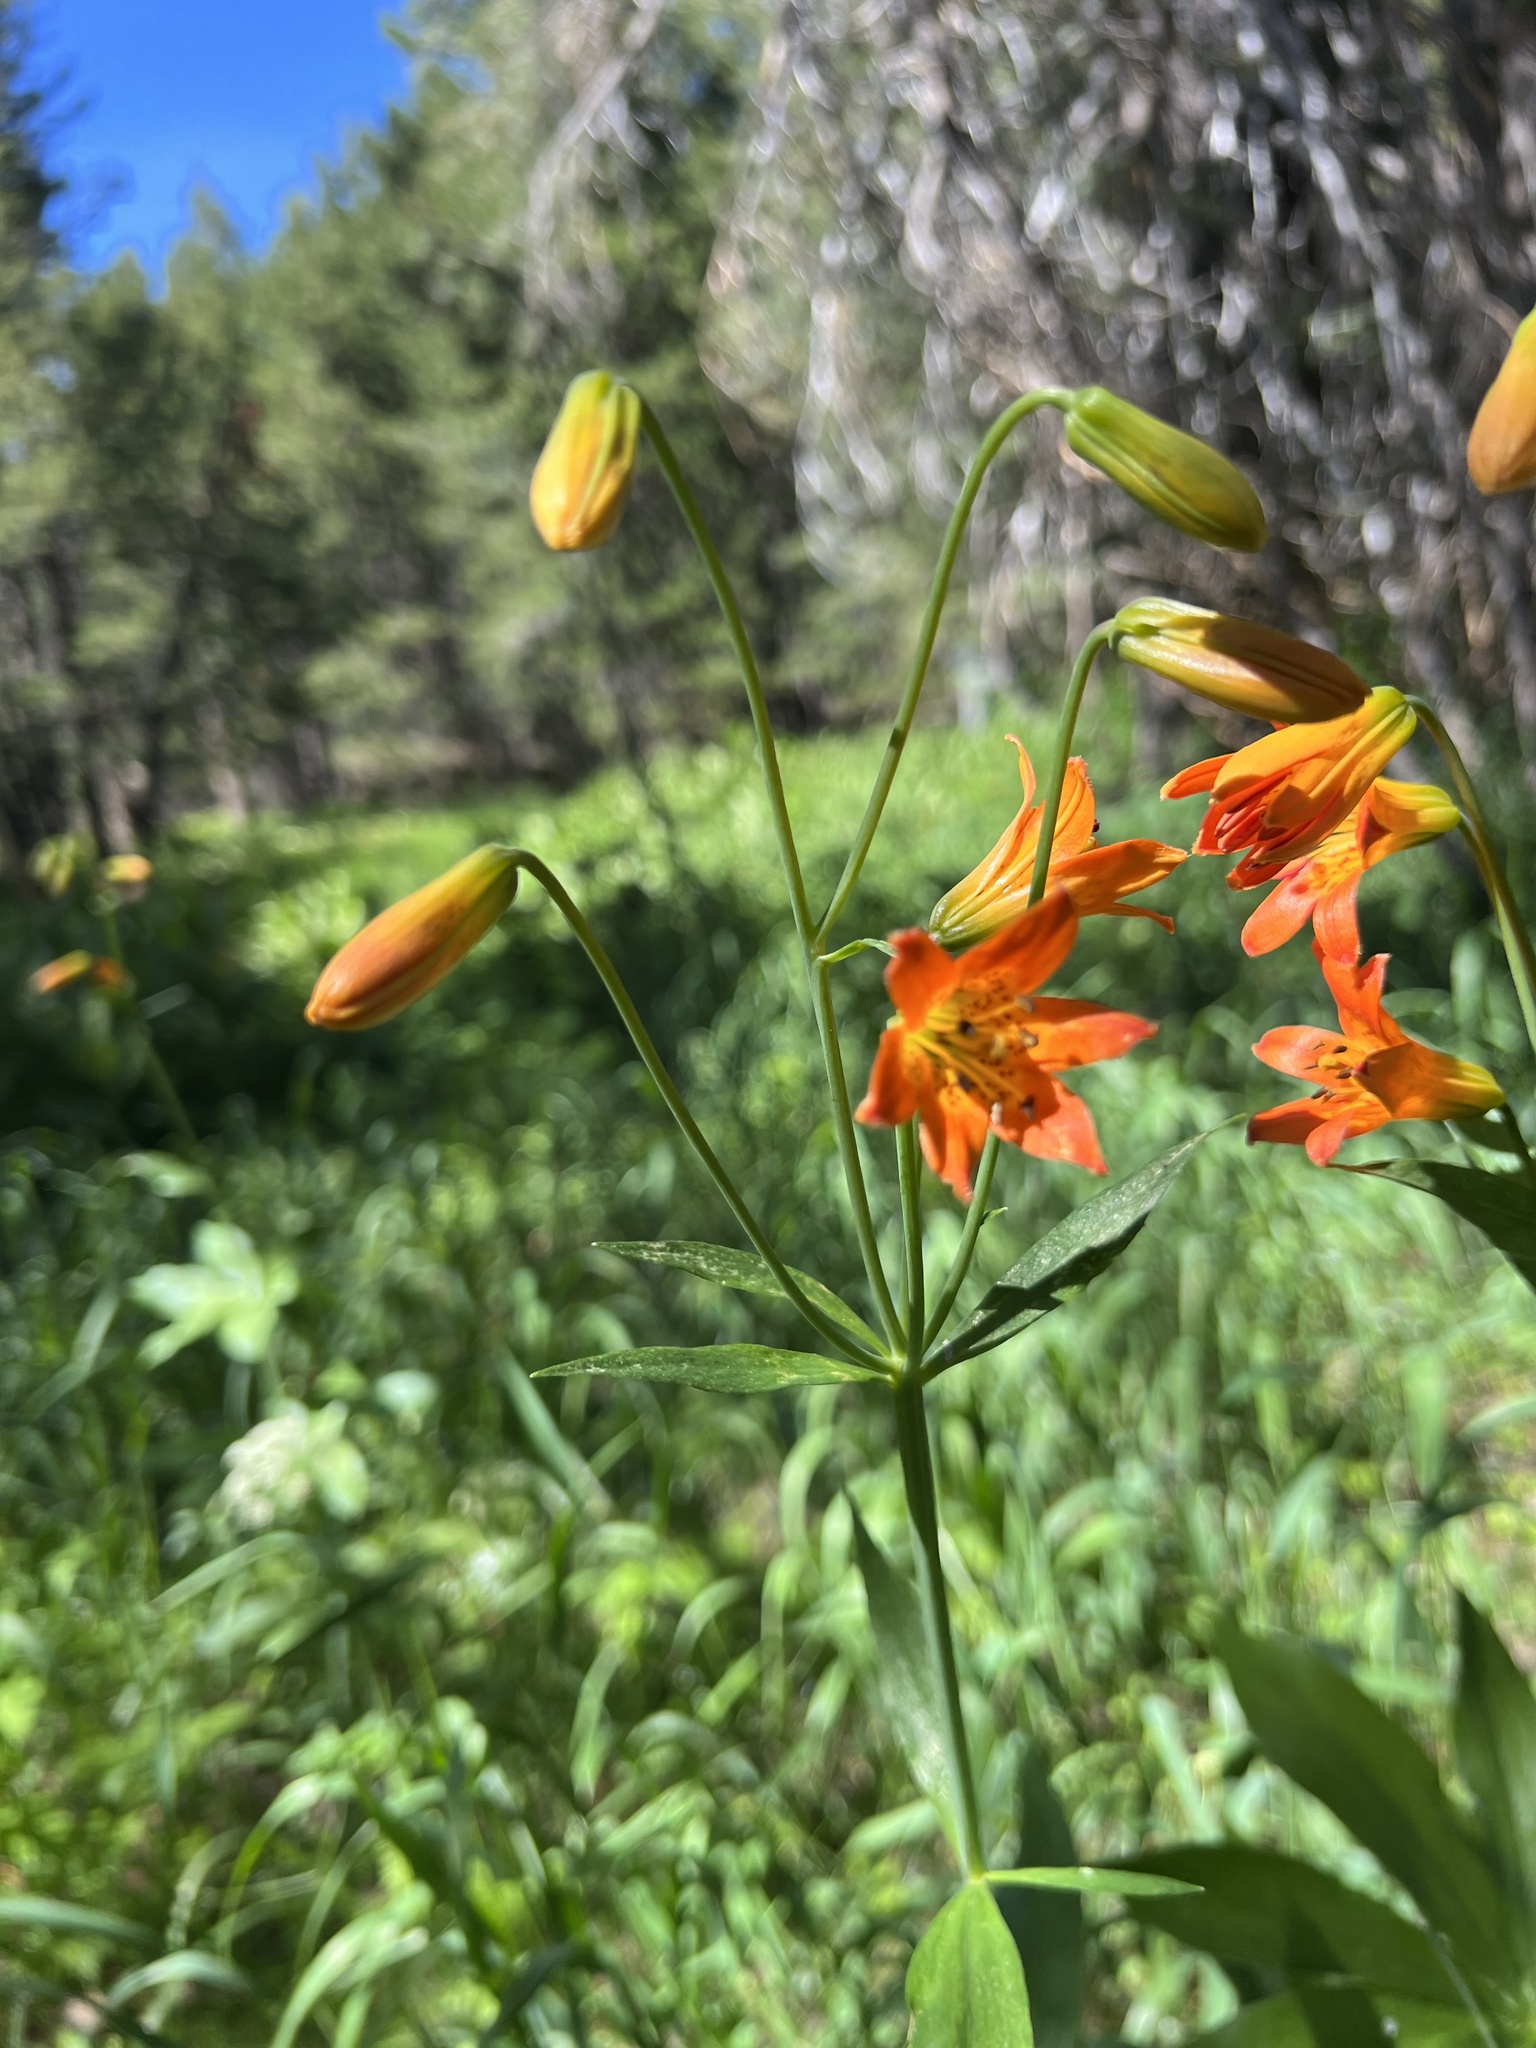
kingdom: Plantae
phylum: Tracheophyta
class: Liliopsida
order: Liliales
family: Liliaceae
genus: Lilium
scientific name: Lilium parvum
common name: Alpine lily
